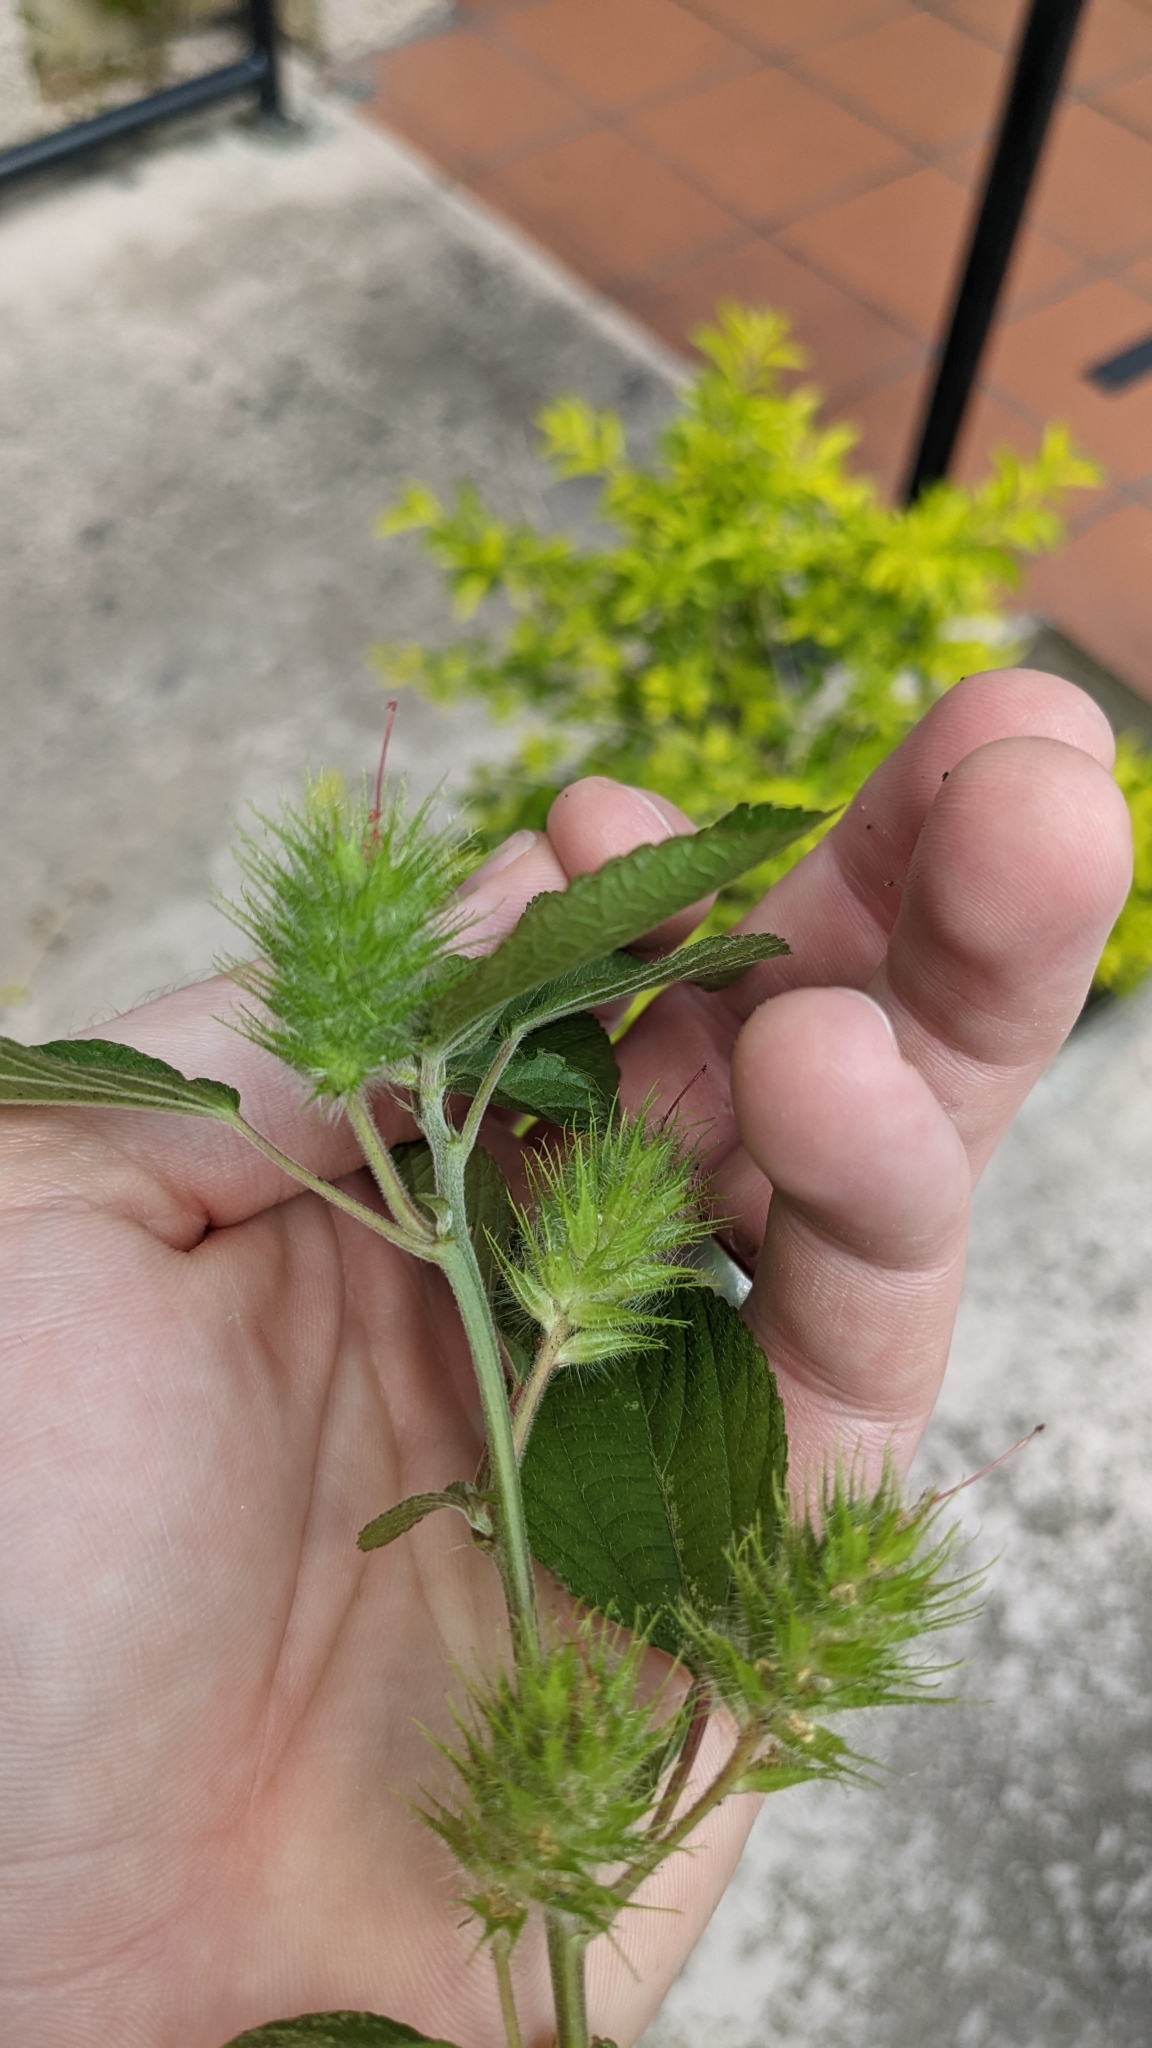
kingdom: Plantae
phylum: Tracheophyta
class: Magnoliopsida
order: Malpighiales
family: Euphorbiaceae
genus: Acalypha
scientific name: Acalypha arvensis
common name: Field copperleaf
